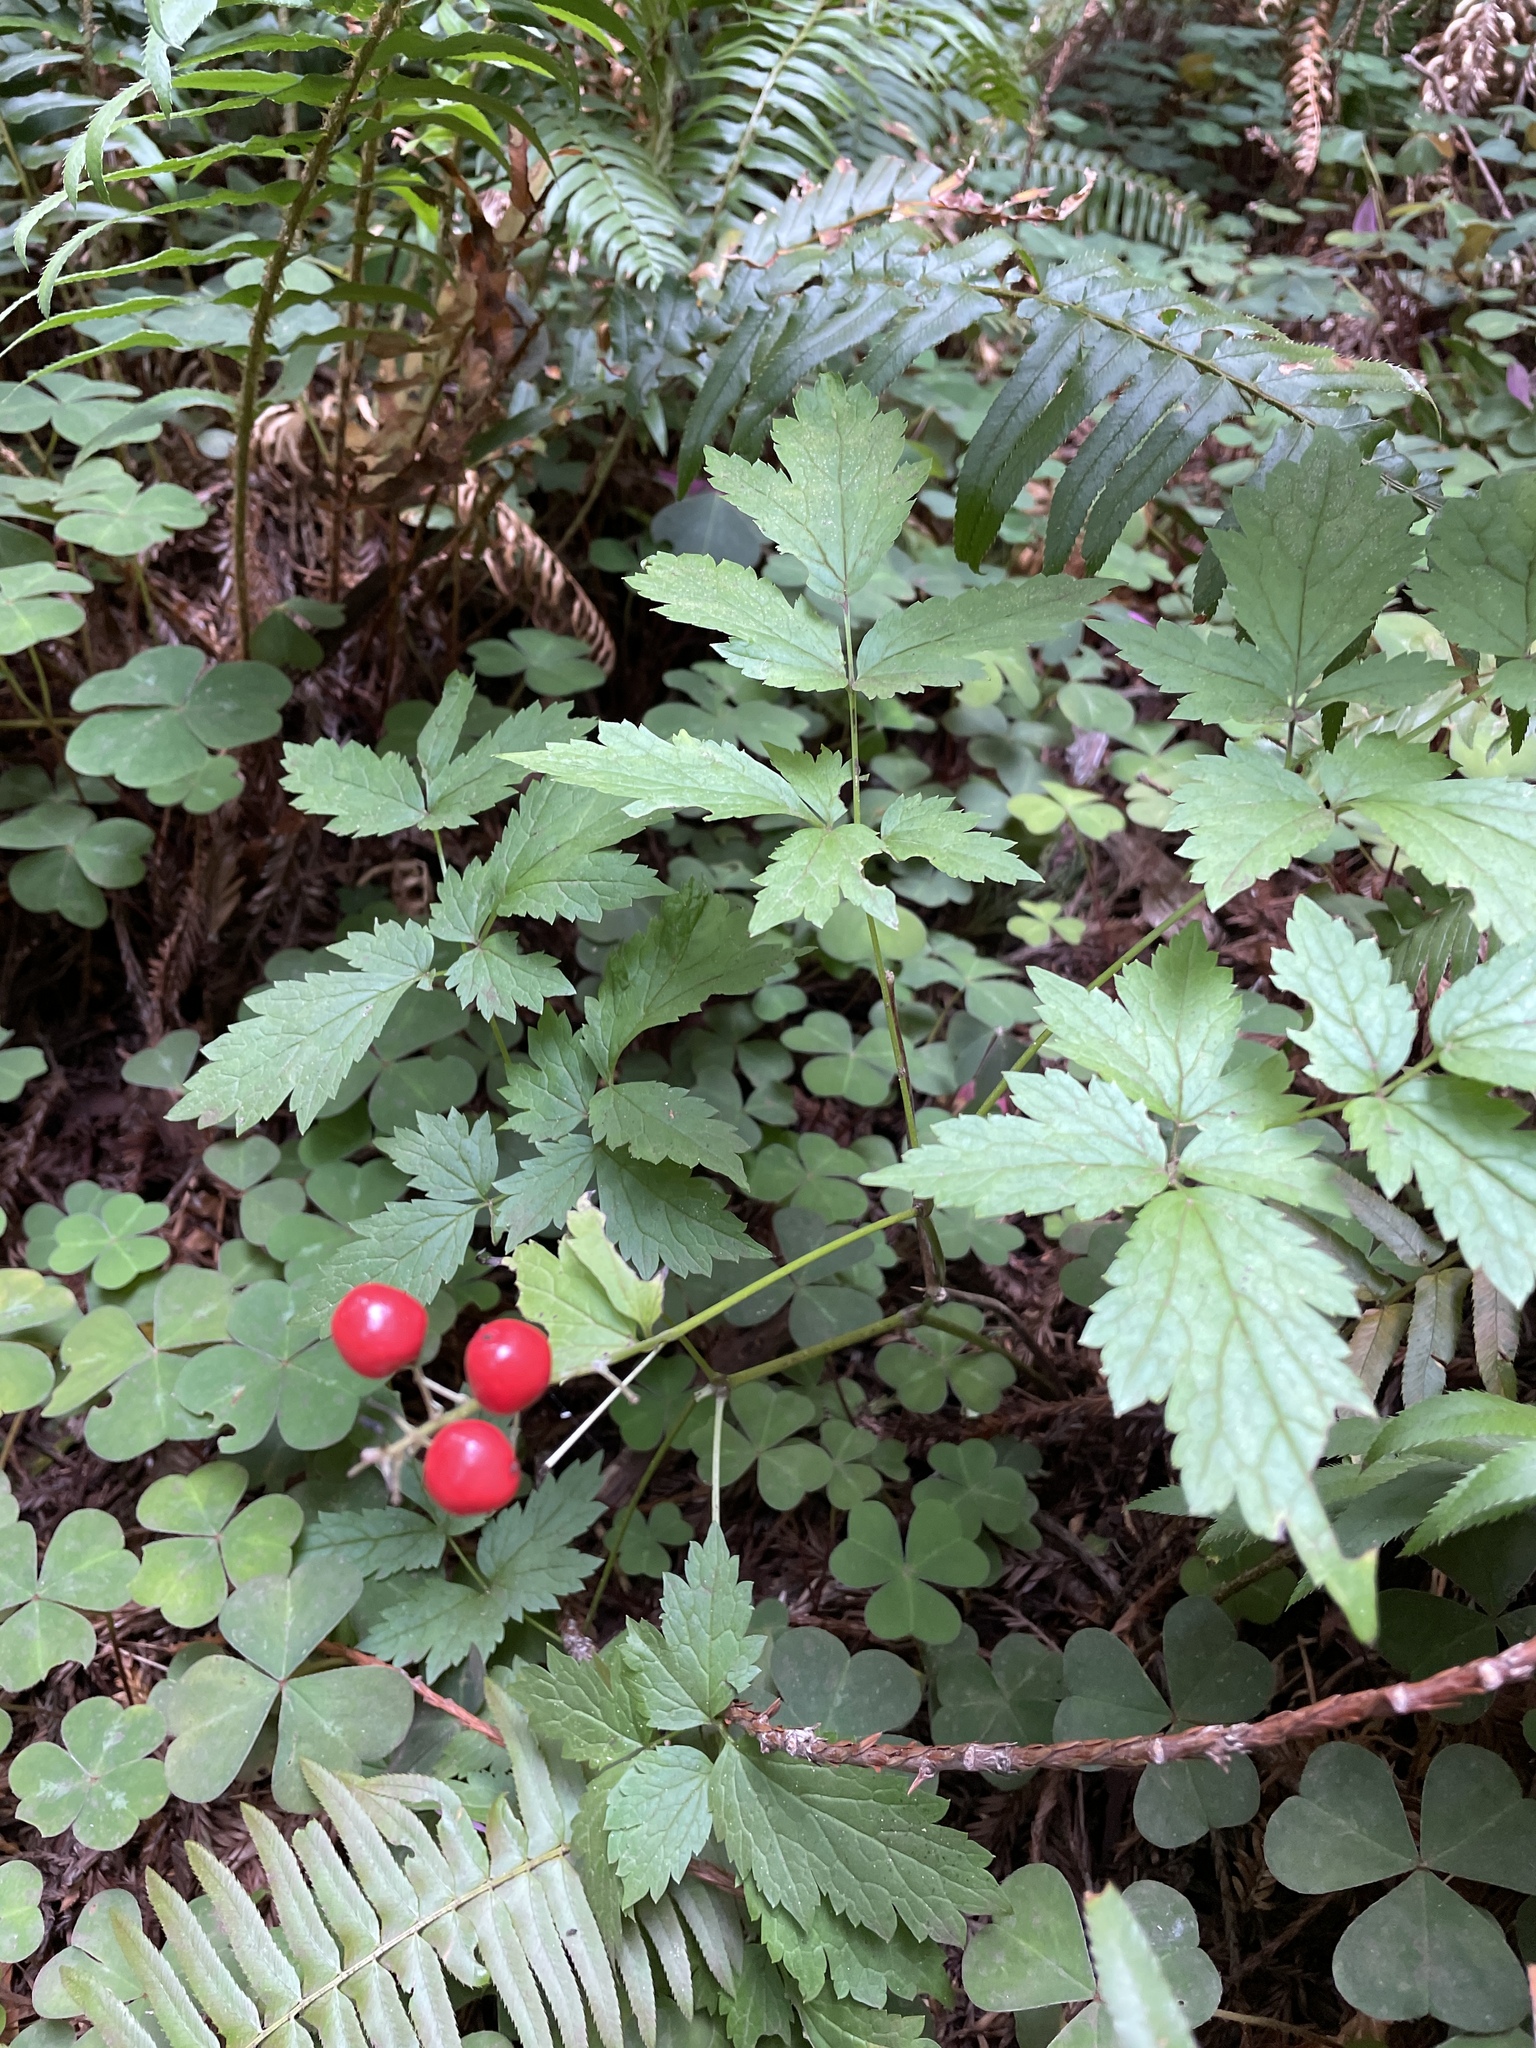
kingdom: Plantae
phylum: Tracheophyta
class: Magnoliopsida
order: Ranunculales
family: Ranunculaceae
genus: Actaea
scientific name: Actaea rubra
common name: Red baneberry
